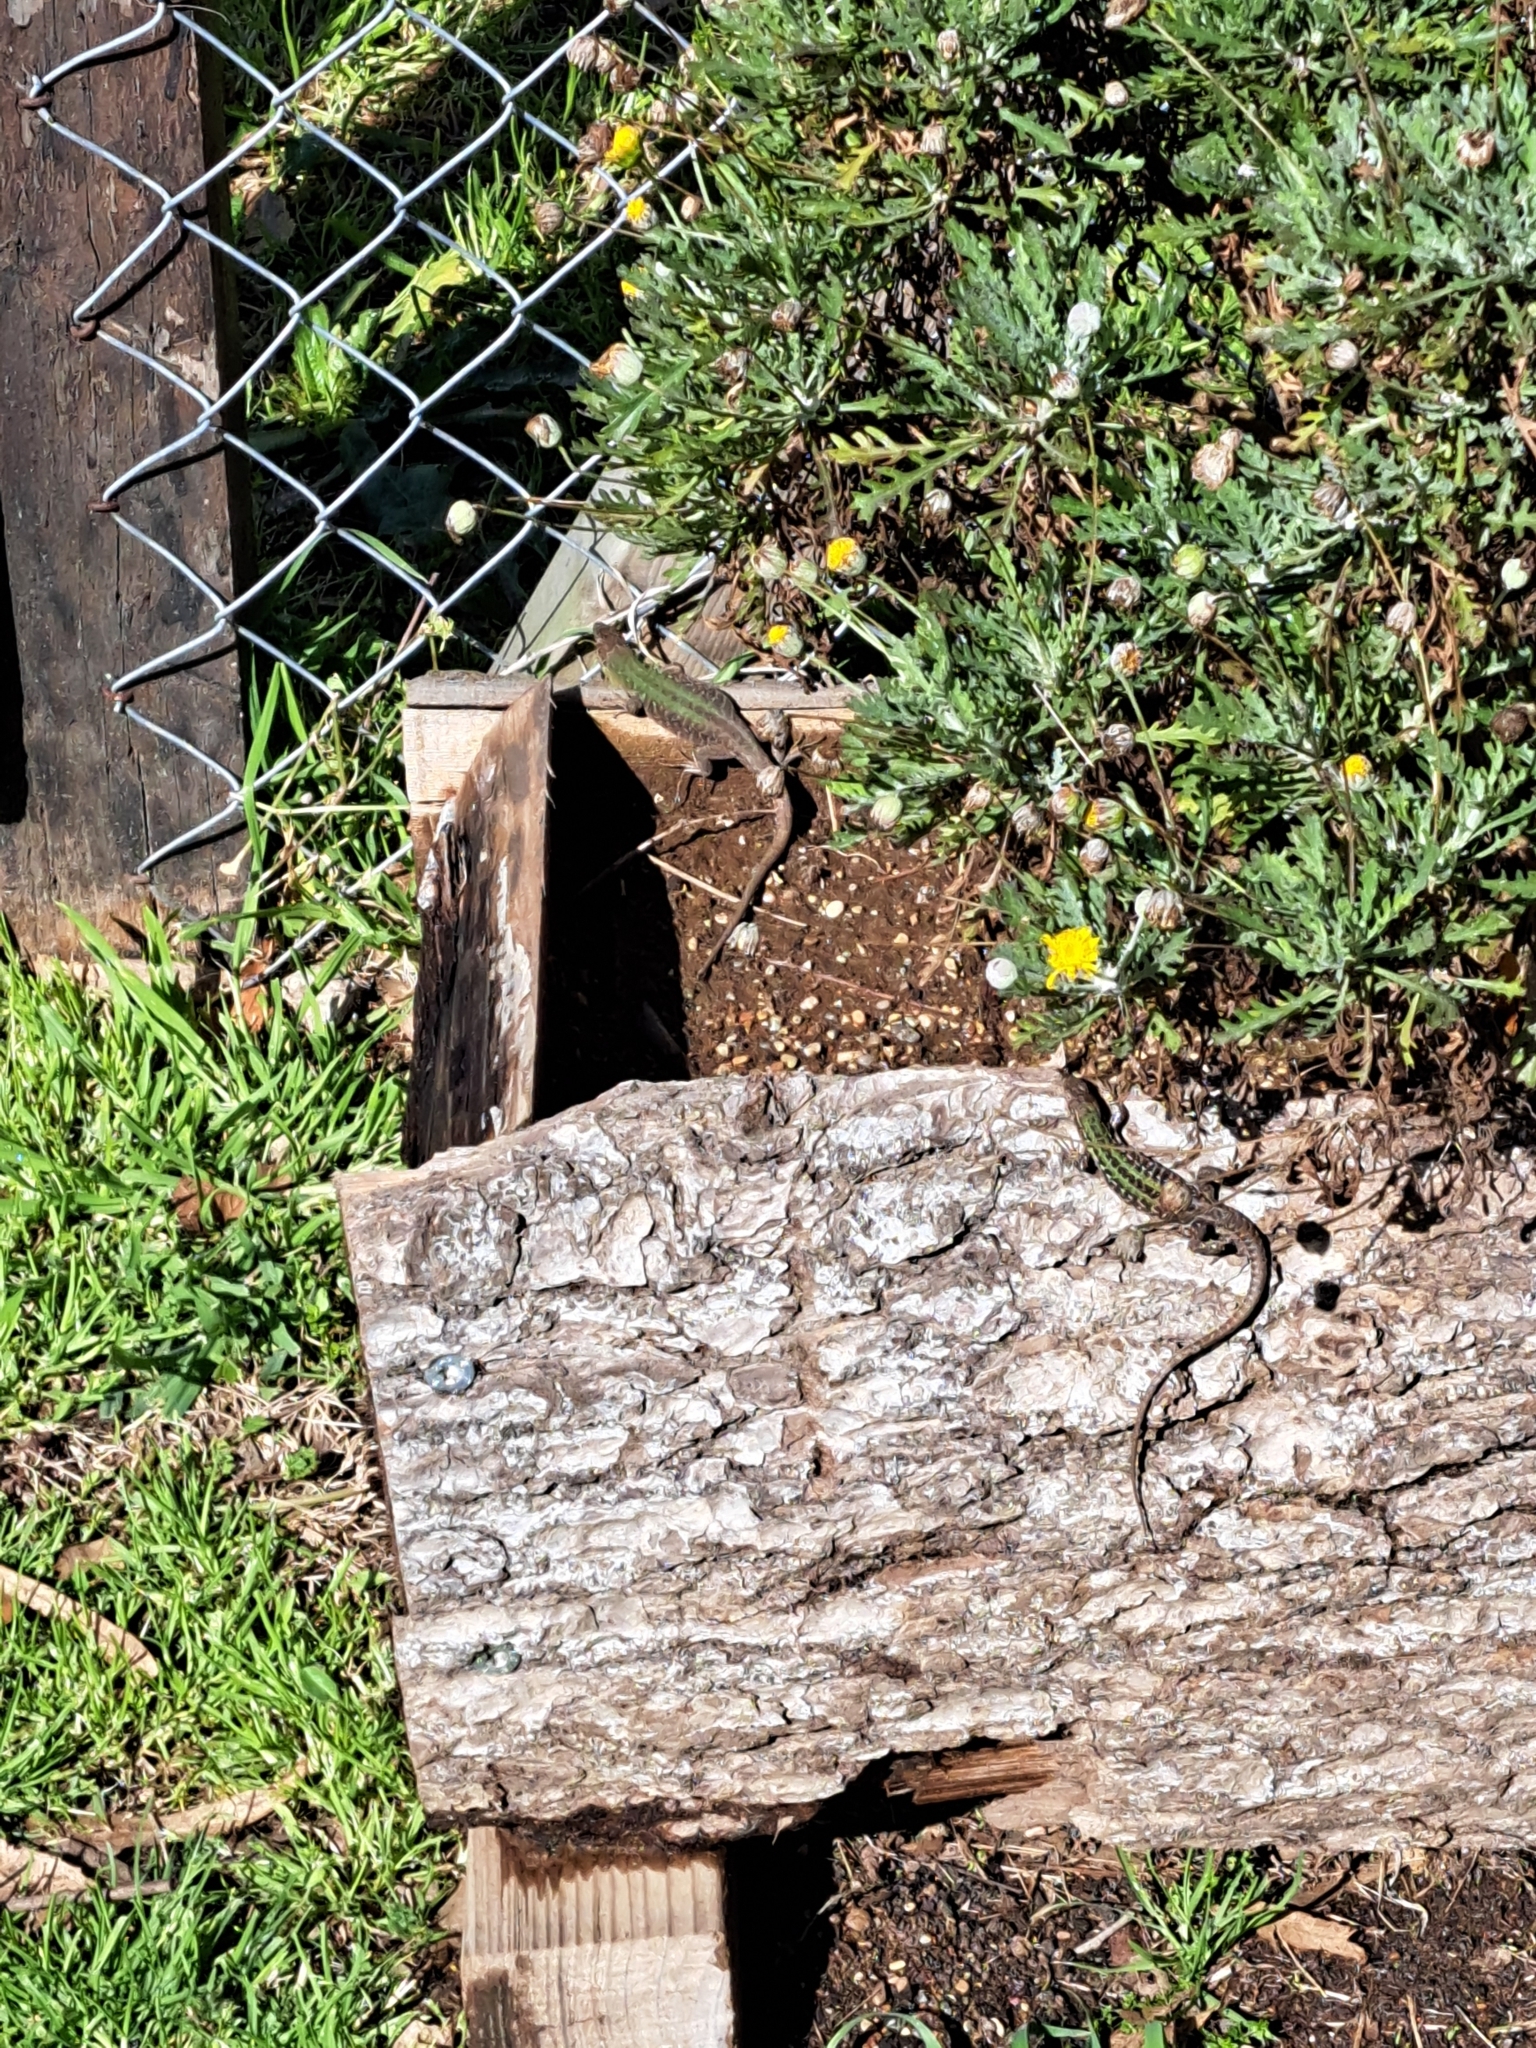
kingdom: Animalia
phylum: Chordata
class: Squamata
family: Lacertidae
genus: Podarcis
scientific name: Podarcis siculus
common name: Italian wall lizard
